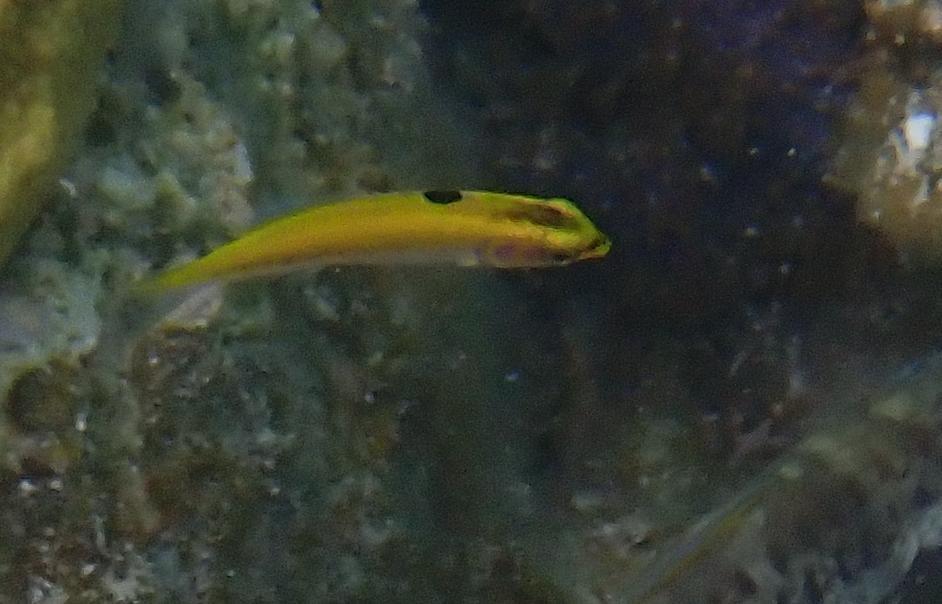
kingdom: Animalia
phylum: Chordata
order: Perciformes
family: Labridae
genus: Thalassoma
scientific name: Thalassoma bifasciatum
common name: Bluehead wrasse
